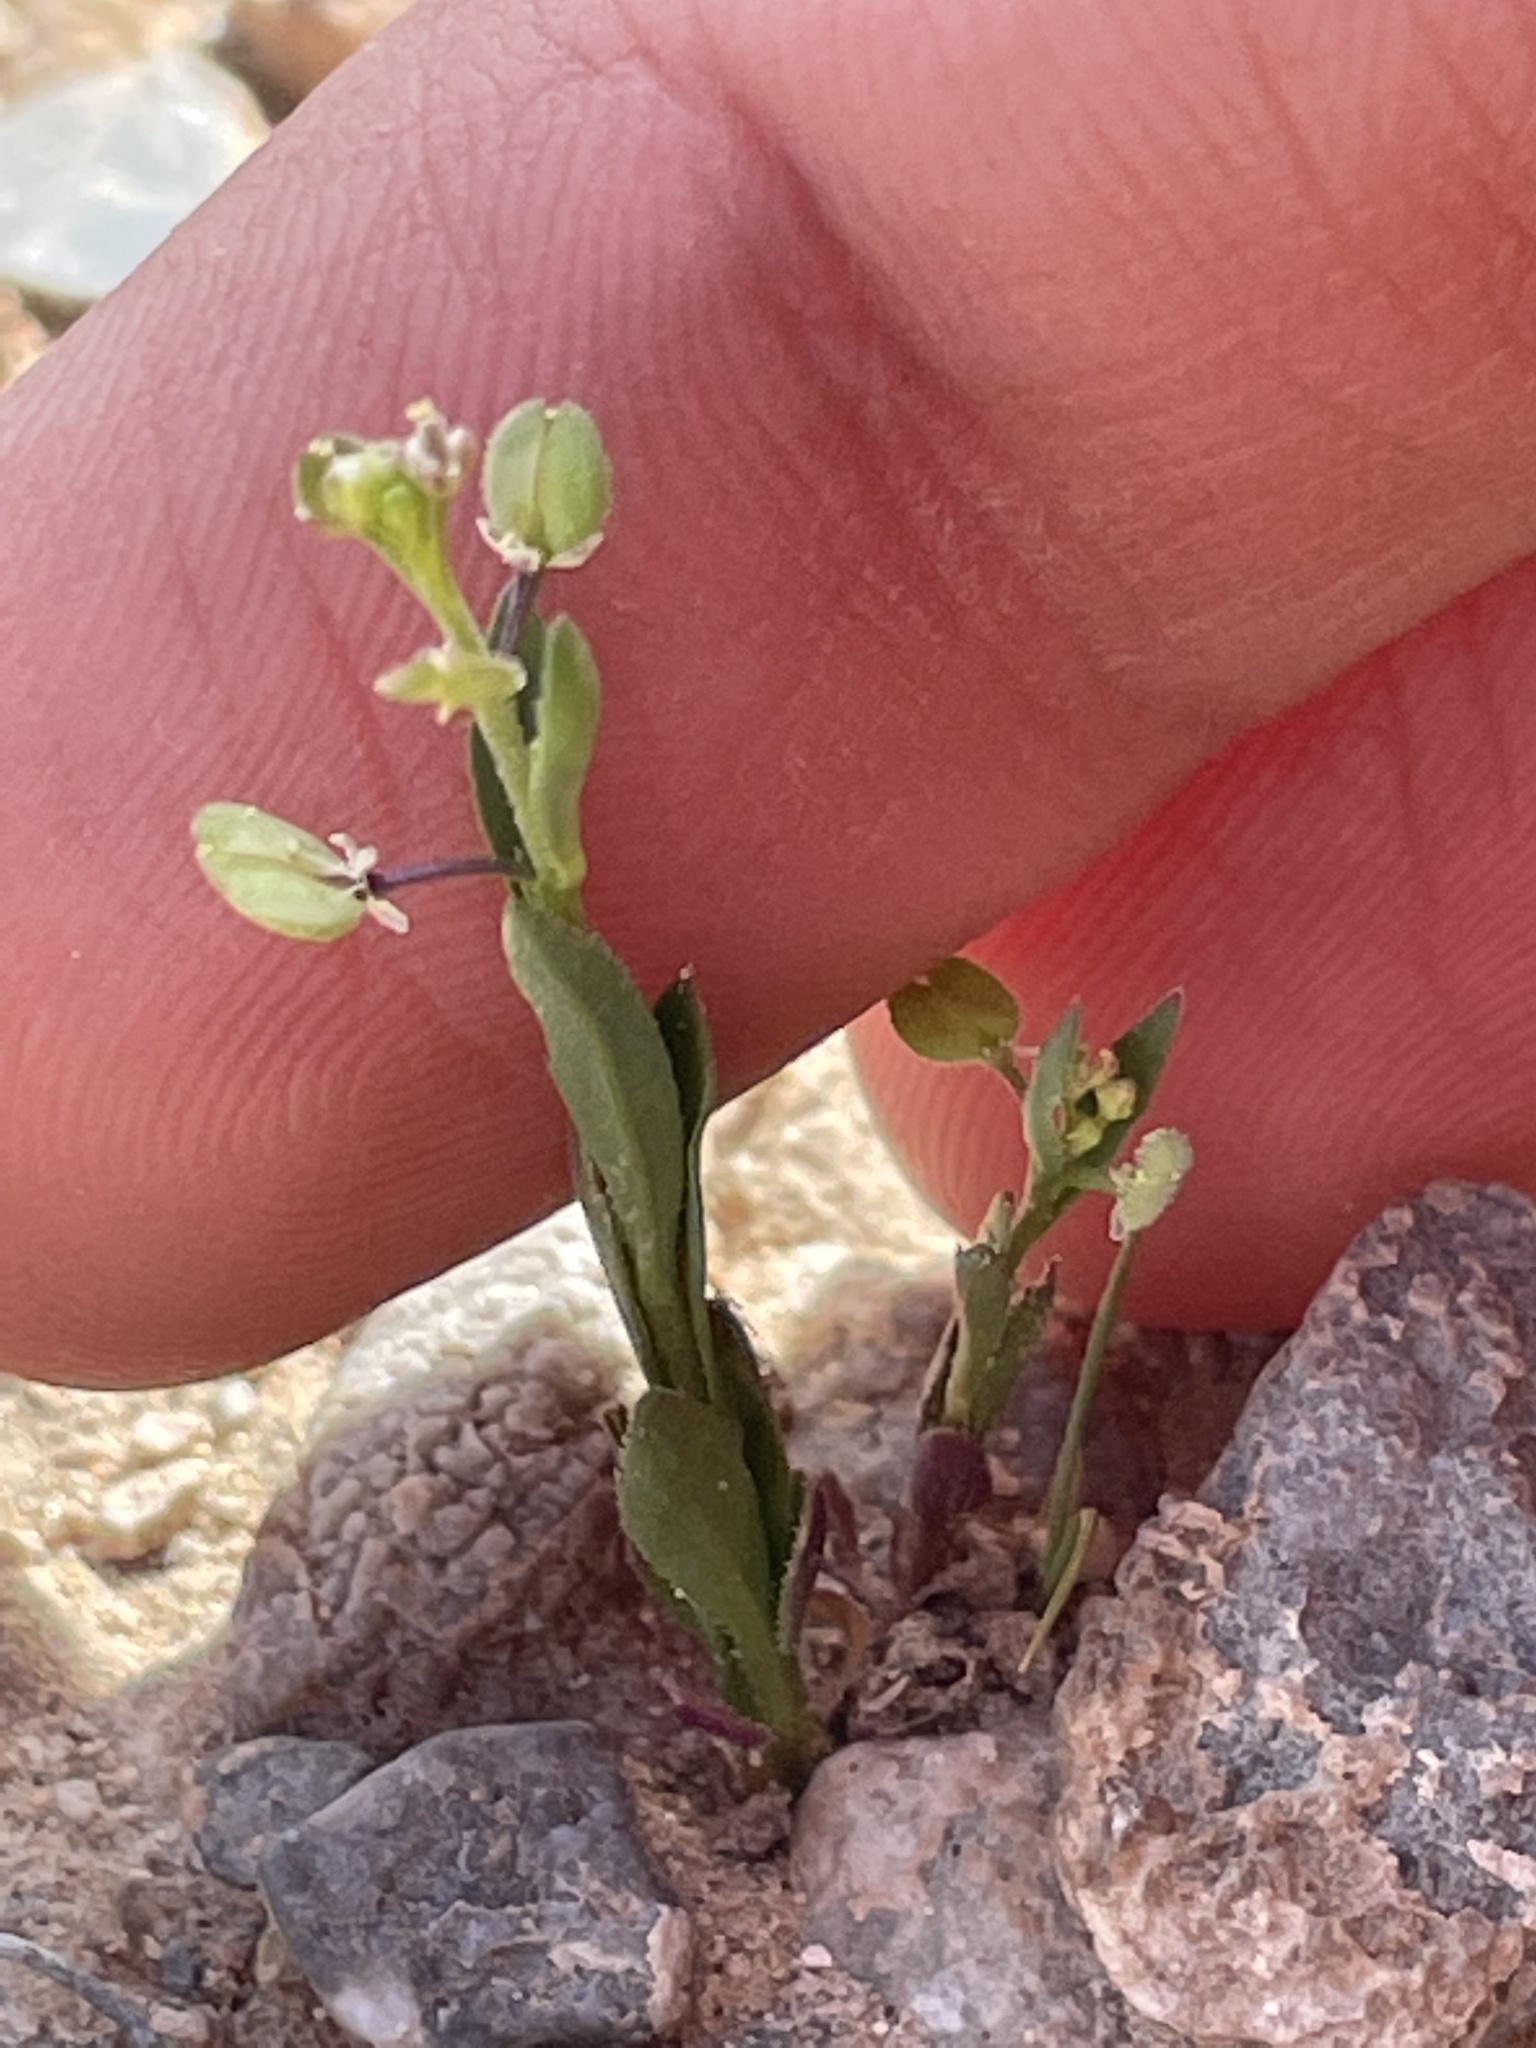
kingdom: Plantae
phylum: Tracheophyta
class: Magnoliopsida
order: Brassicales
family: Brassicaceae
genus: Lepidium
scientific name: Lepidium lasiocarpum
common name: Hairy-pod pepperwort
